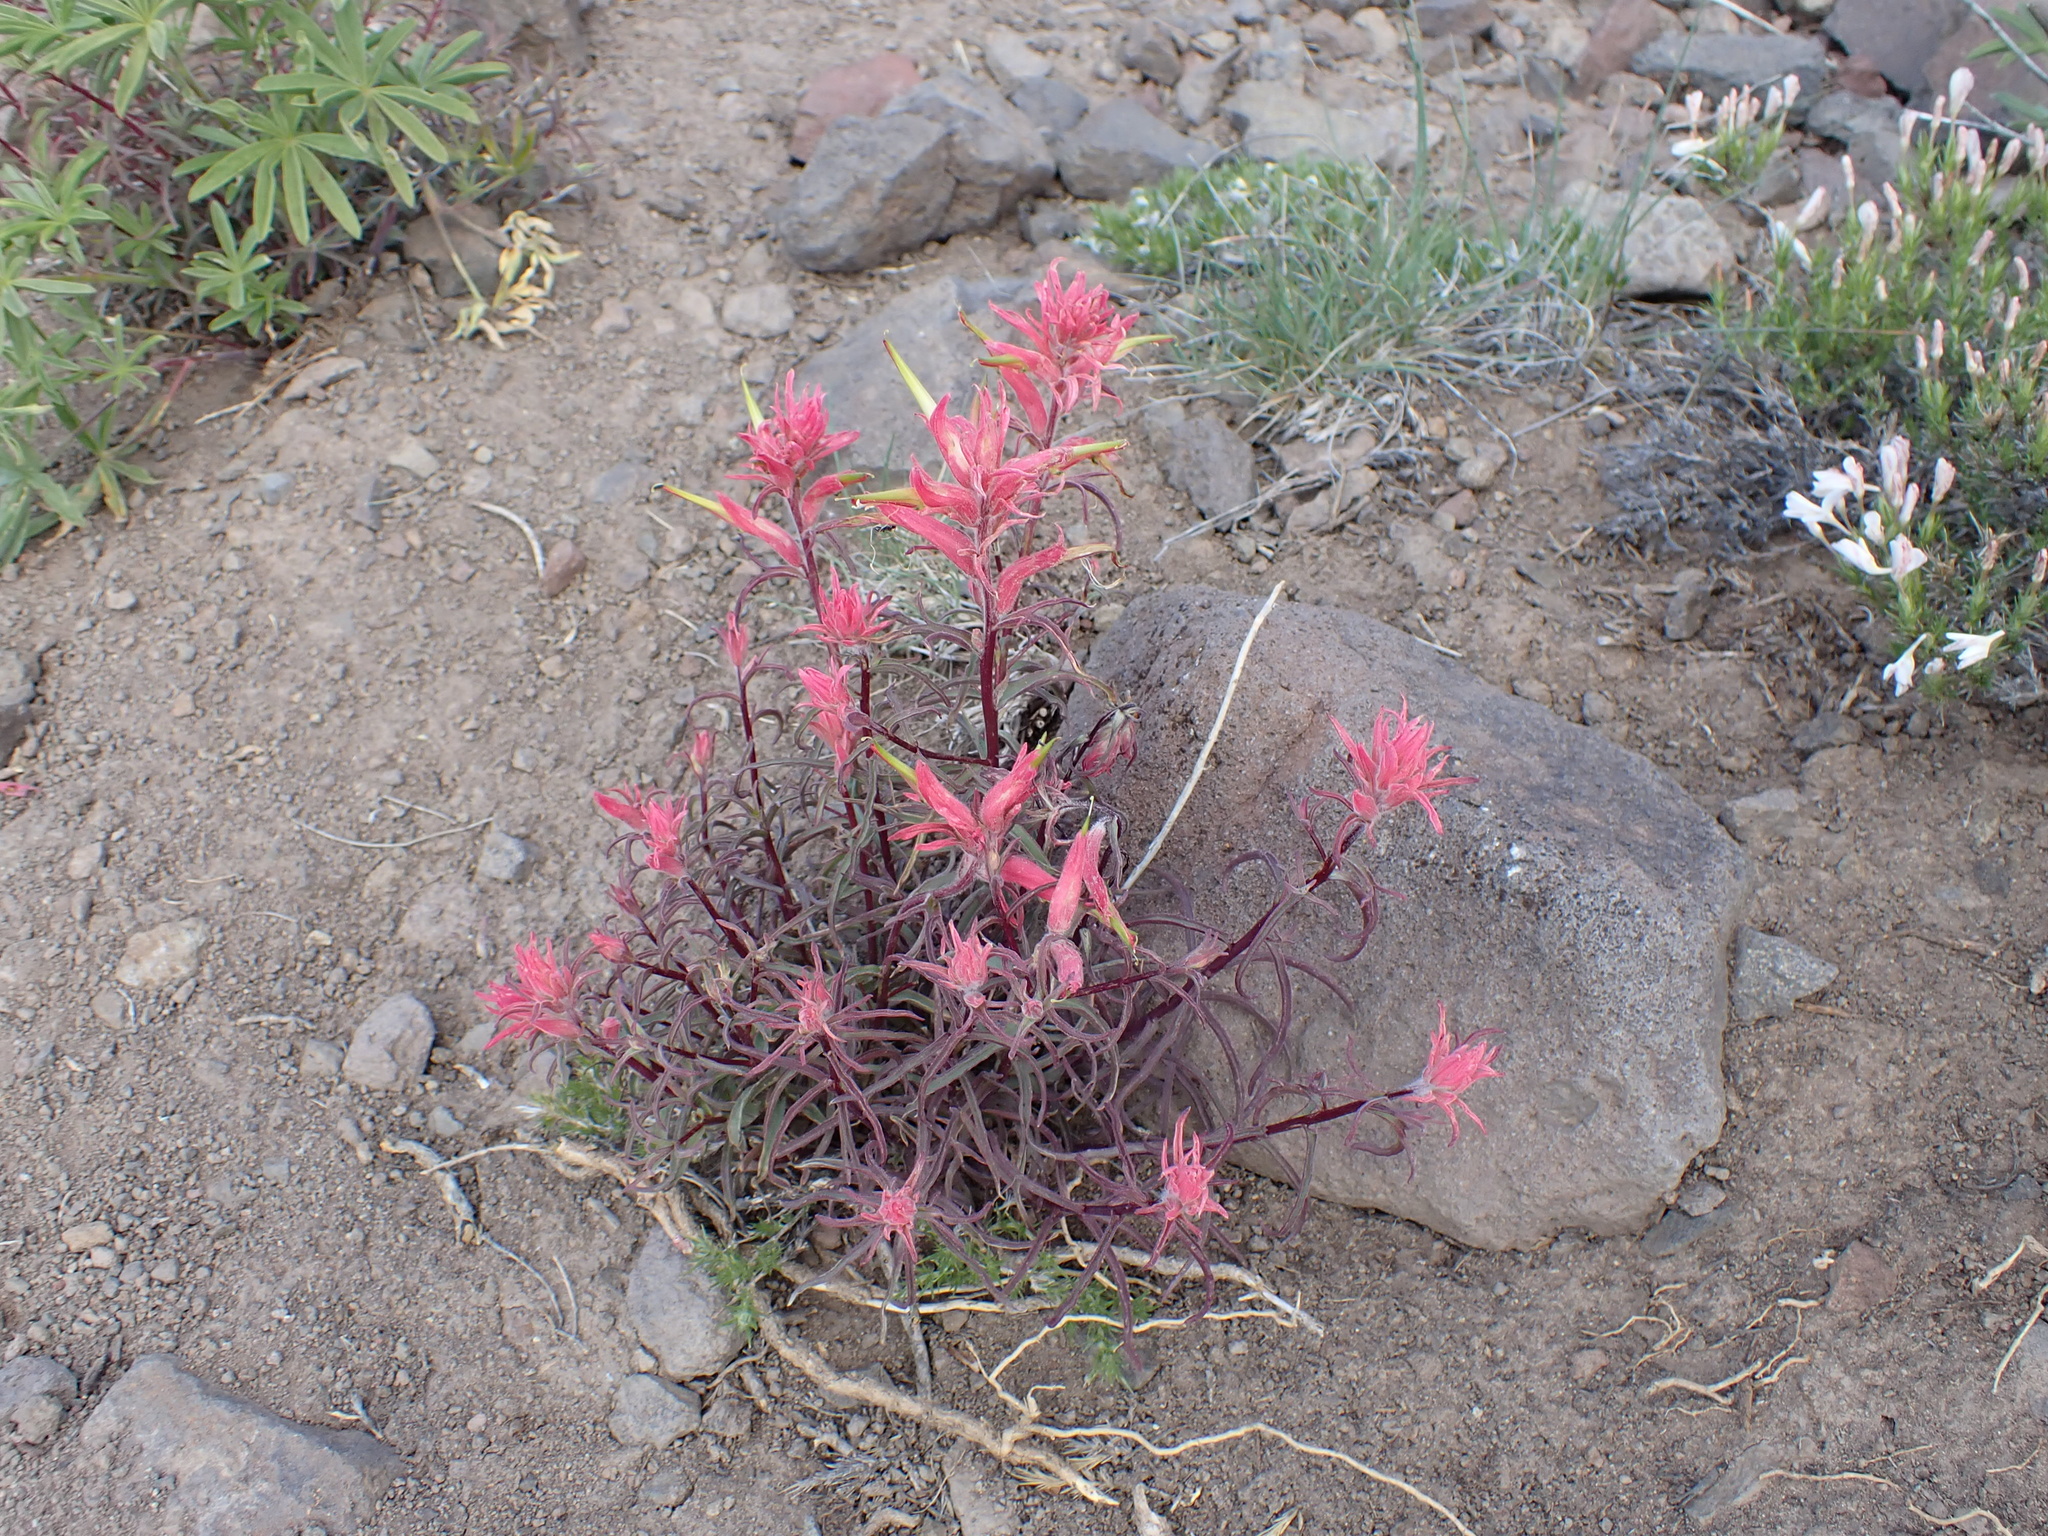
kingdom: Plantae
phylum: Tracheophyta
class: Magnoliopsida
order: Lamiales
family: Orobanchaceae
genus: Castilleja
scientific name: Castilleja linariifolia
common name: Wyoming paintbrush
